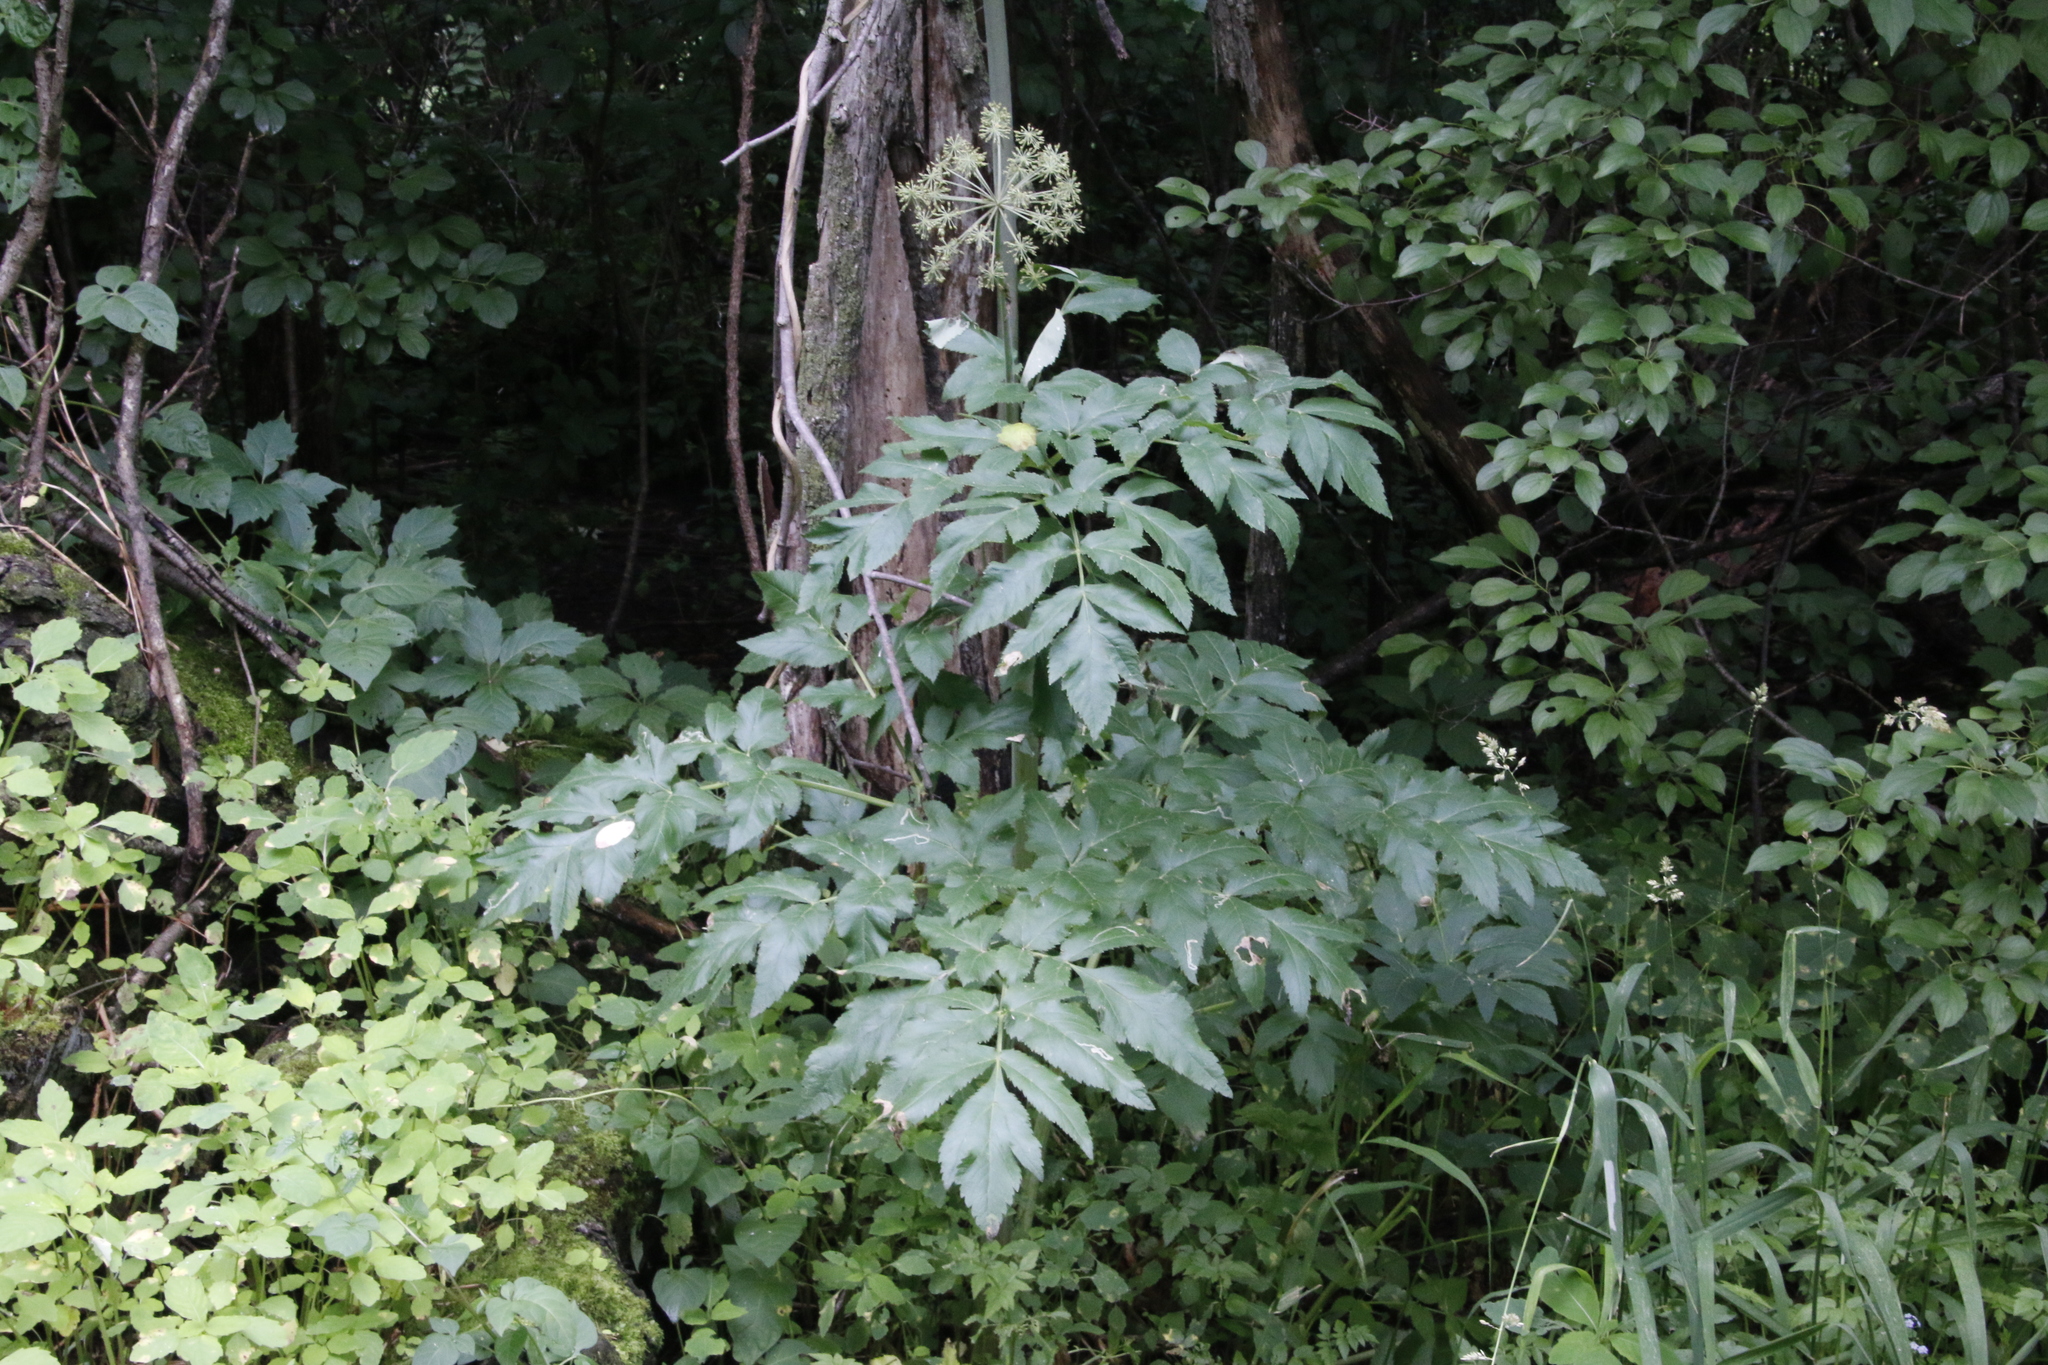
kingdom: Plantae
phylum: Tracheophyta
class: Magnoliopsida
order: Apiales
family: Apiaceae
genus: Angelica
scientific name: Angelica atropurpurea
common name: Great angelica
